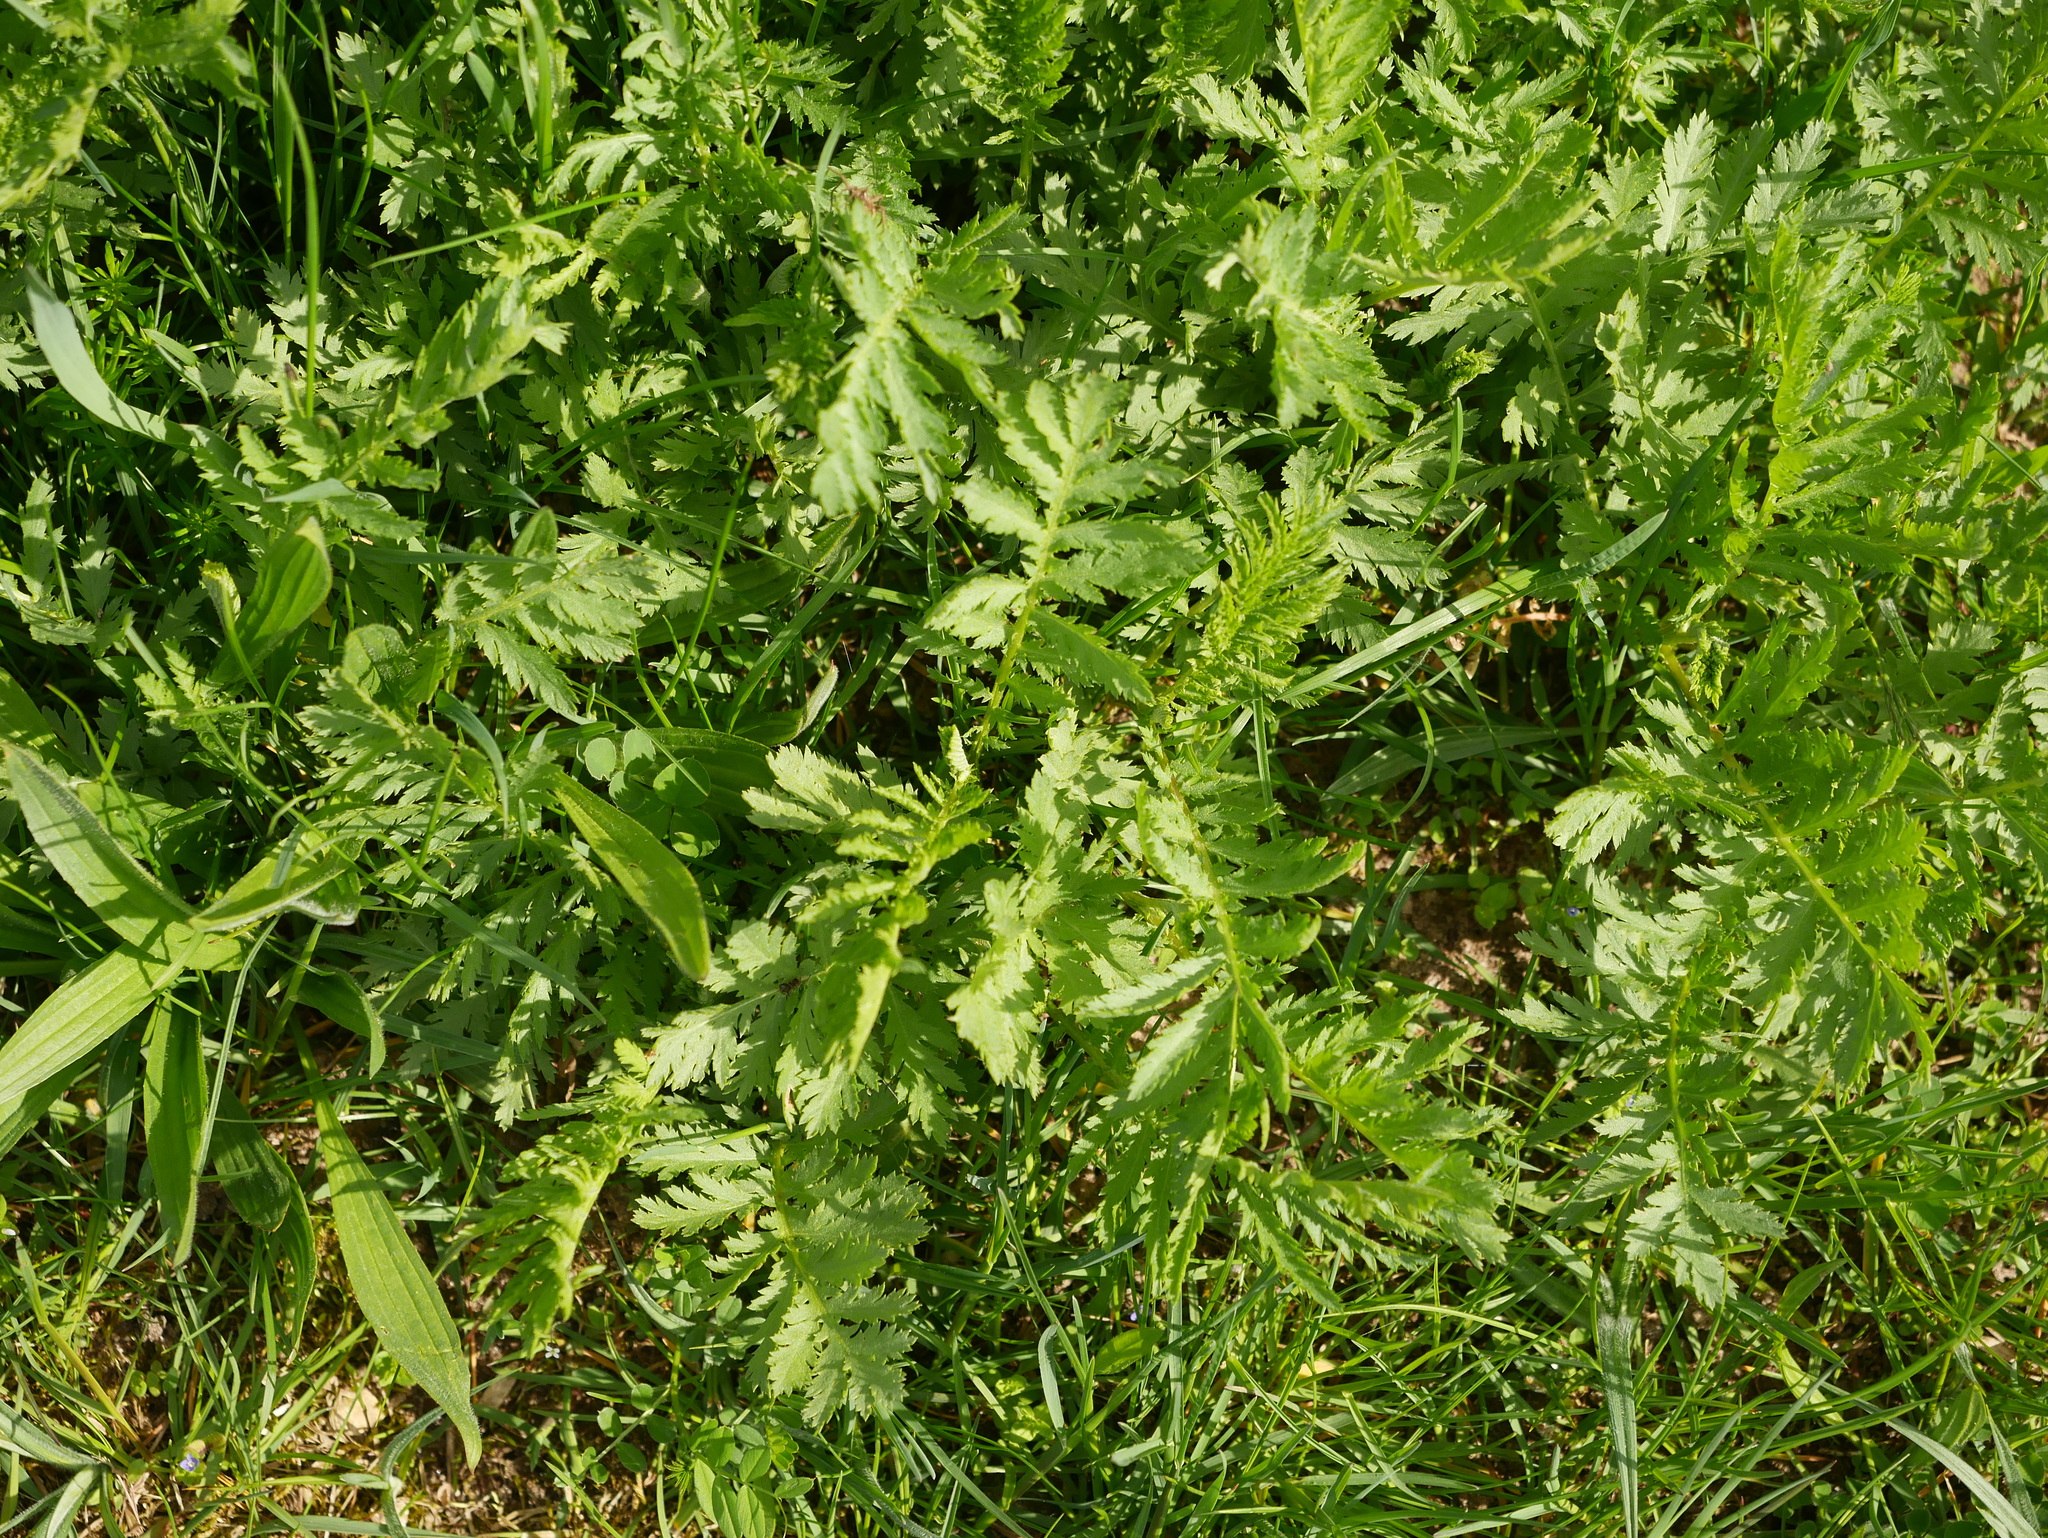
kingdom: Plantae
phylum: Tracheophyta
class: Magnoliopsida
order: Asterales
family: Asteraceae
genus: Tanacetum
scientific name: Tanacetum vulgare
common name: Common tansy
